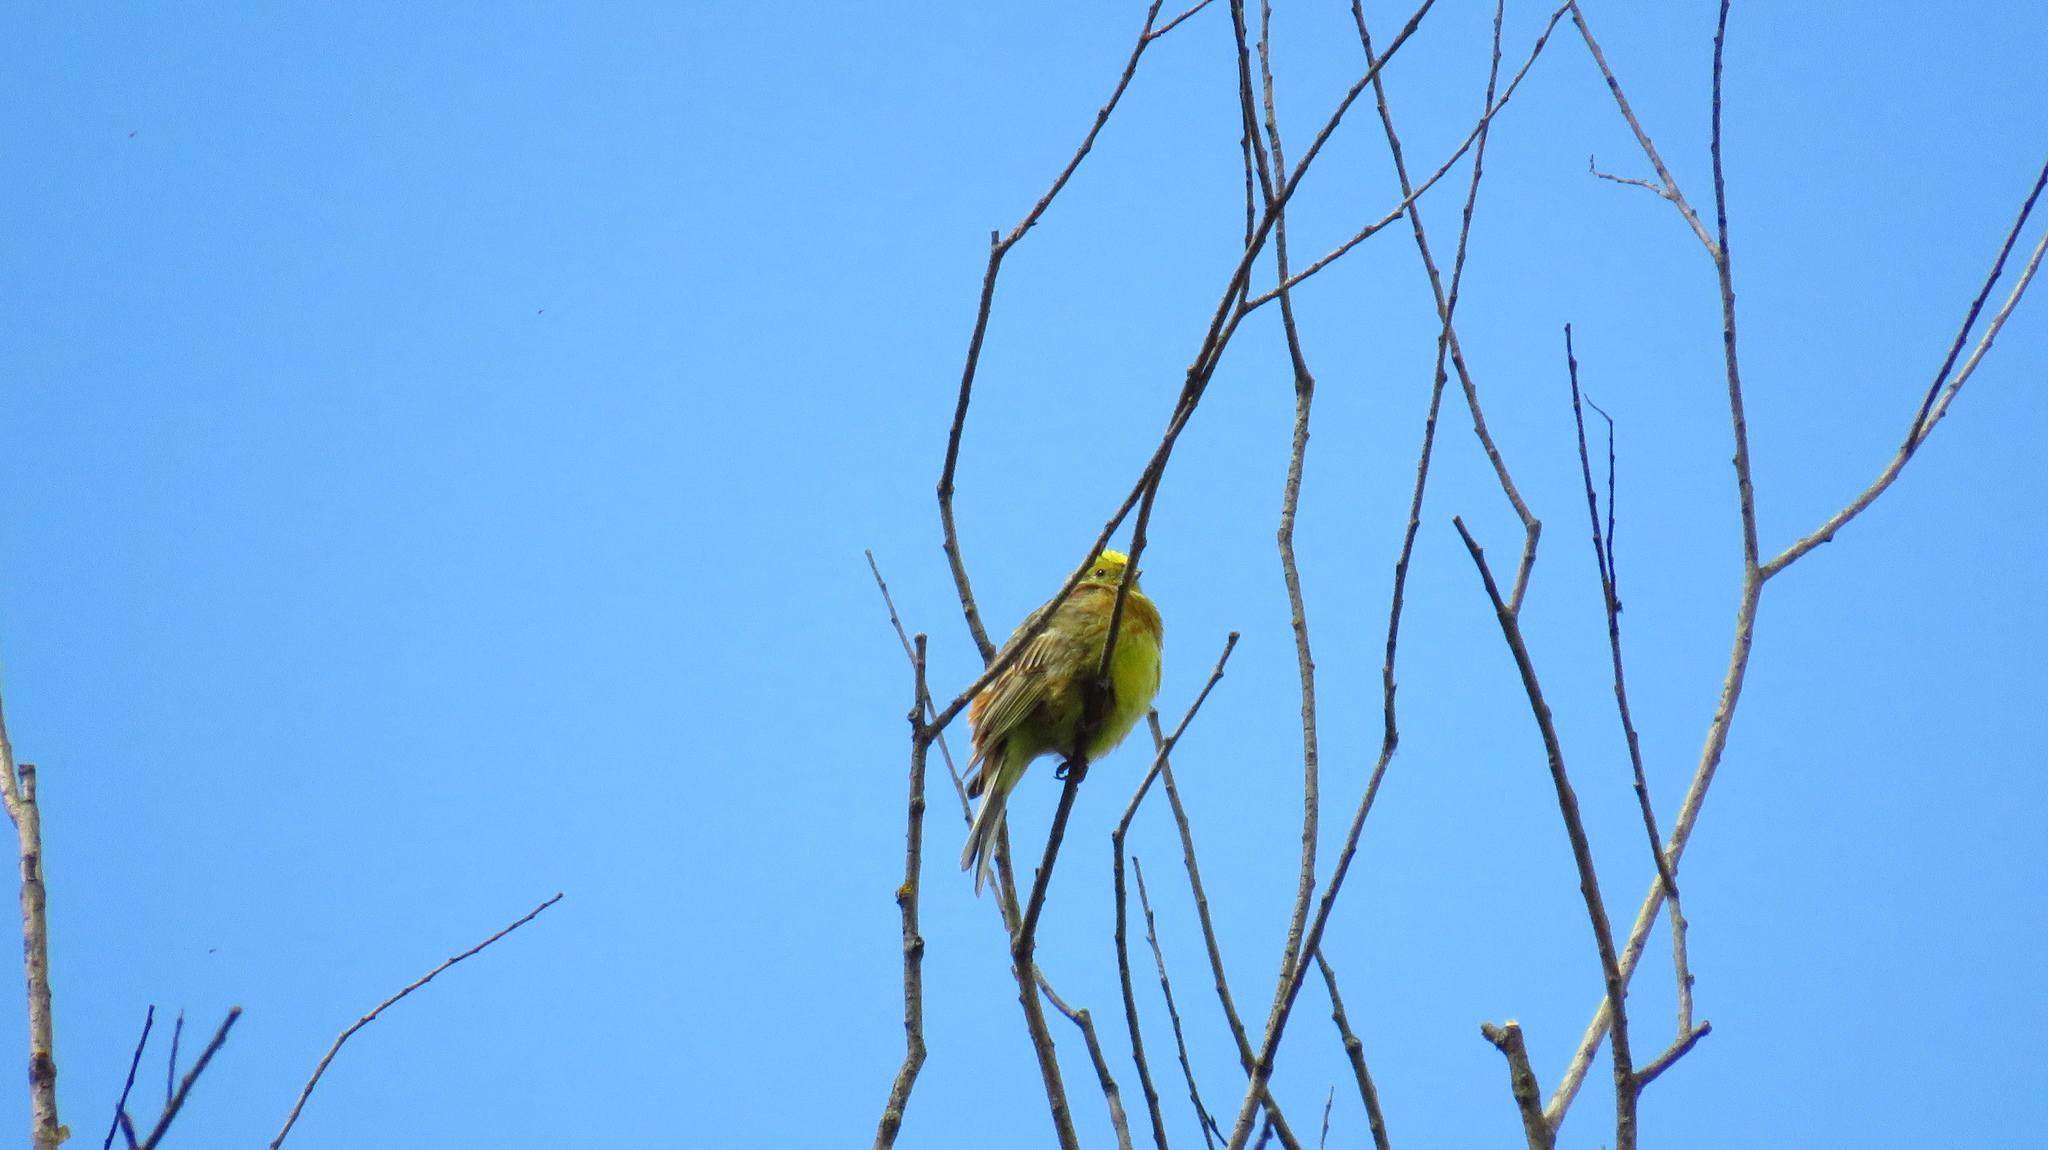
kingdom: Animalia
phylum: Chordata
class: Aves
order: Passeriformes
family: Emberizidae
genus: Emberiza
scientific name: Emberiza citrinella
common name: Yellowhammer
